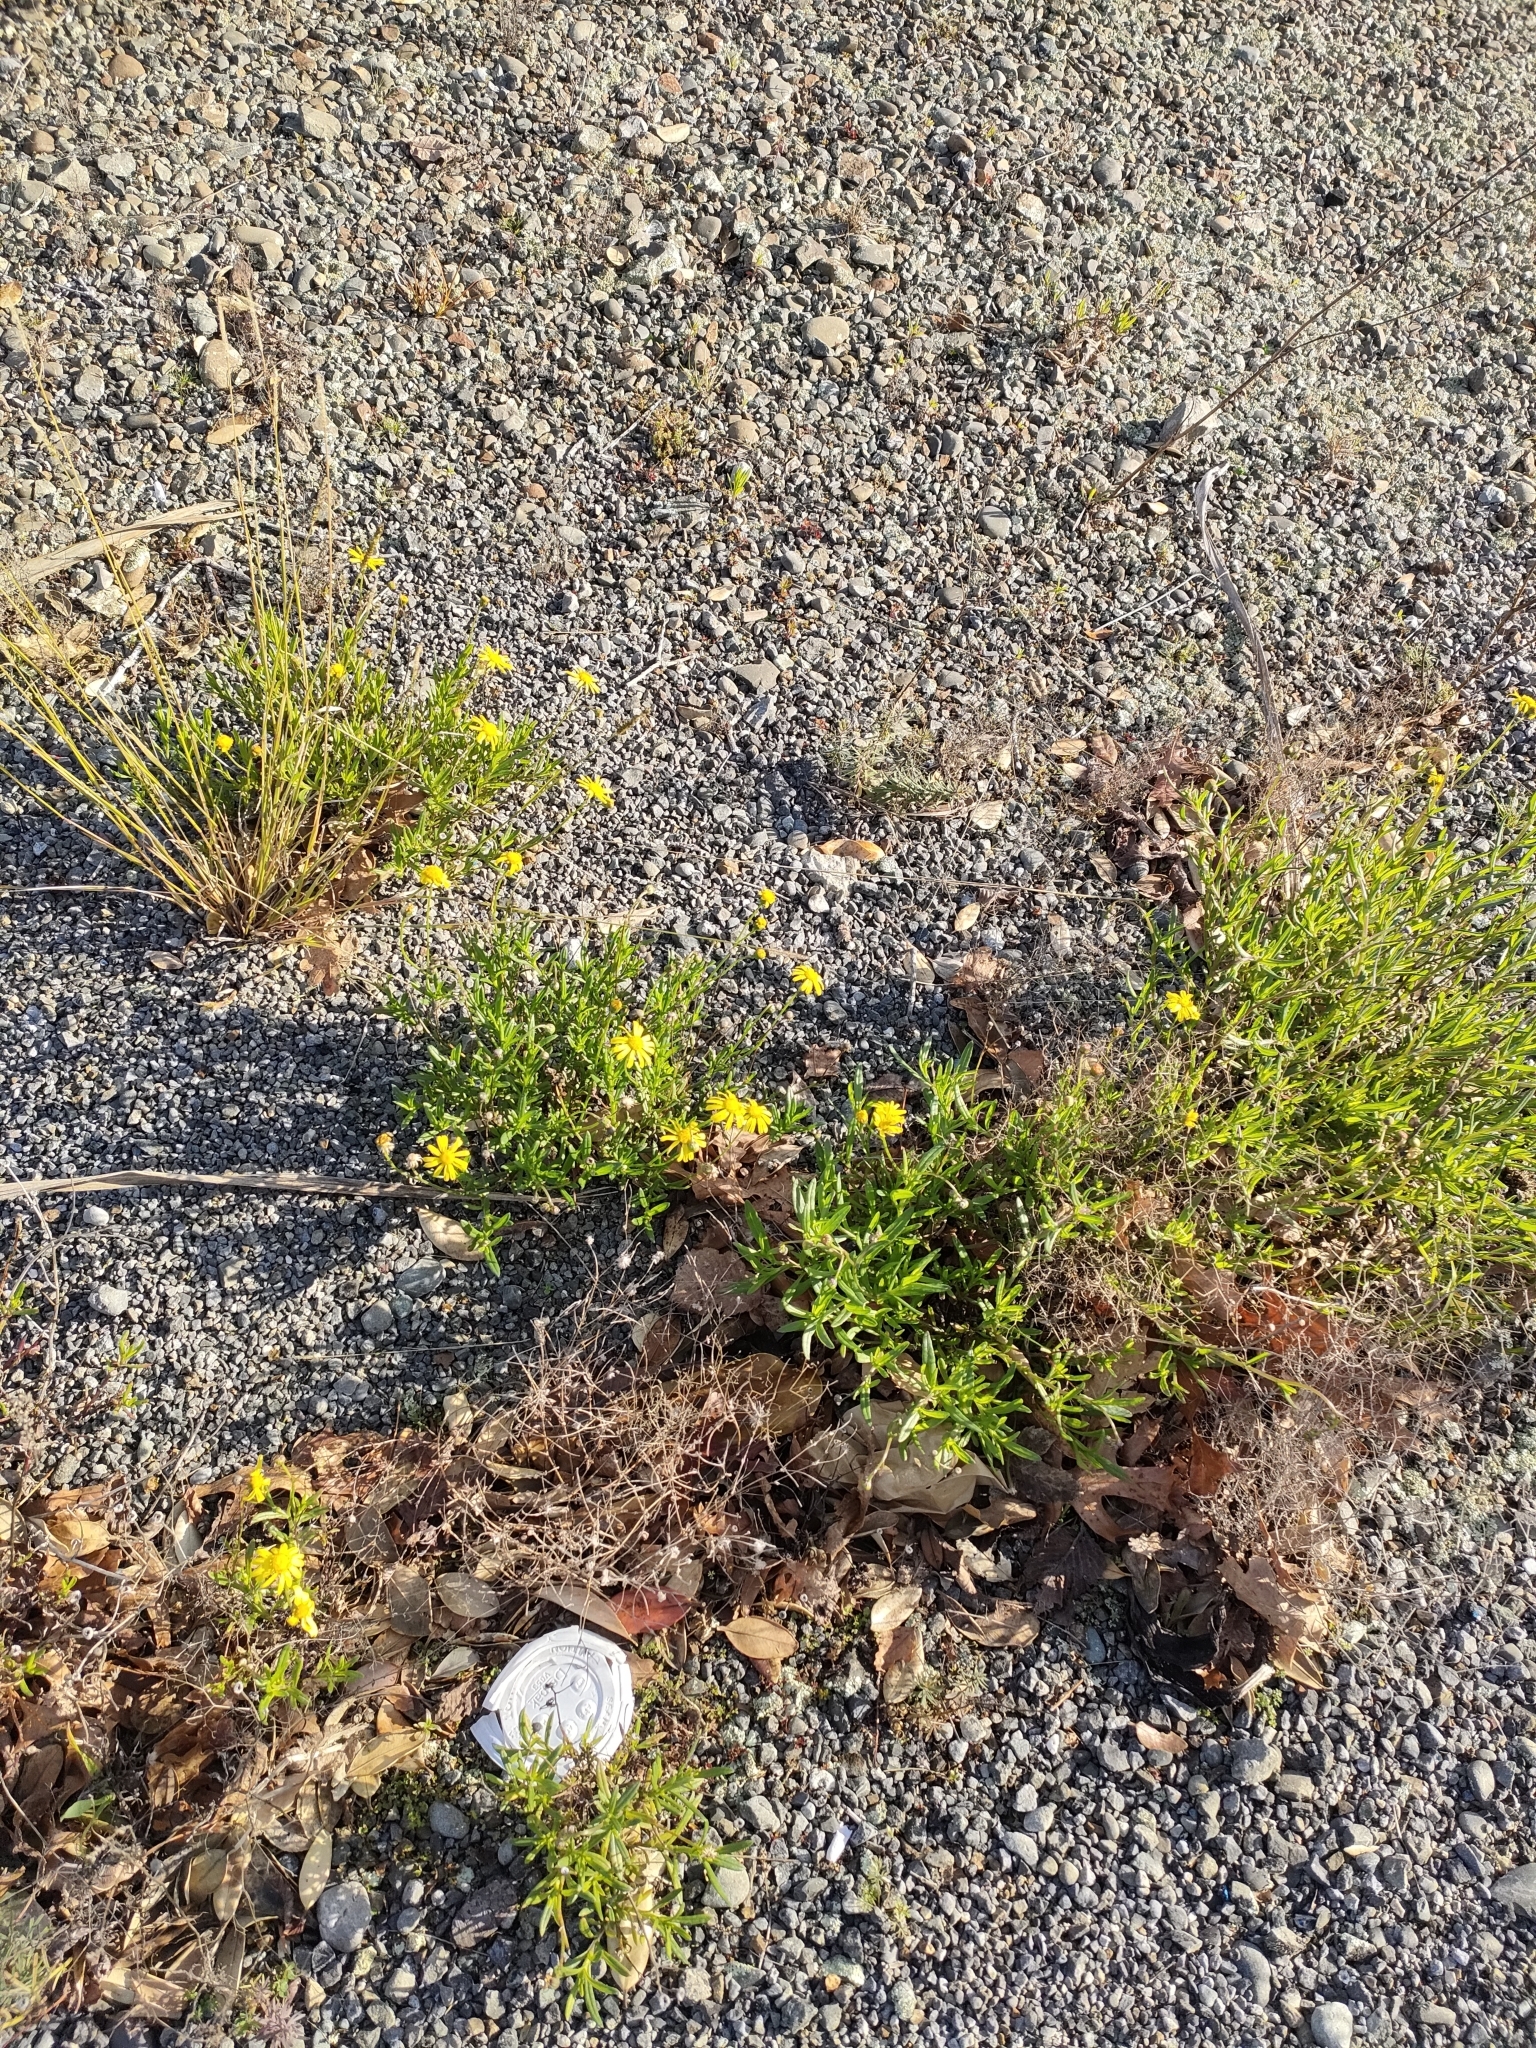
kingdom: Plantae
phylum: Tracheophyta
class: Magnoliopsida
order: Asterales
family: Asteraceae
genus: Senecio
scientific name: Senecio skirrhodon
